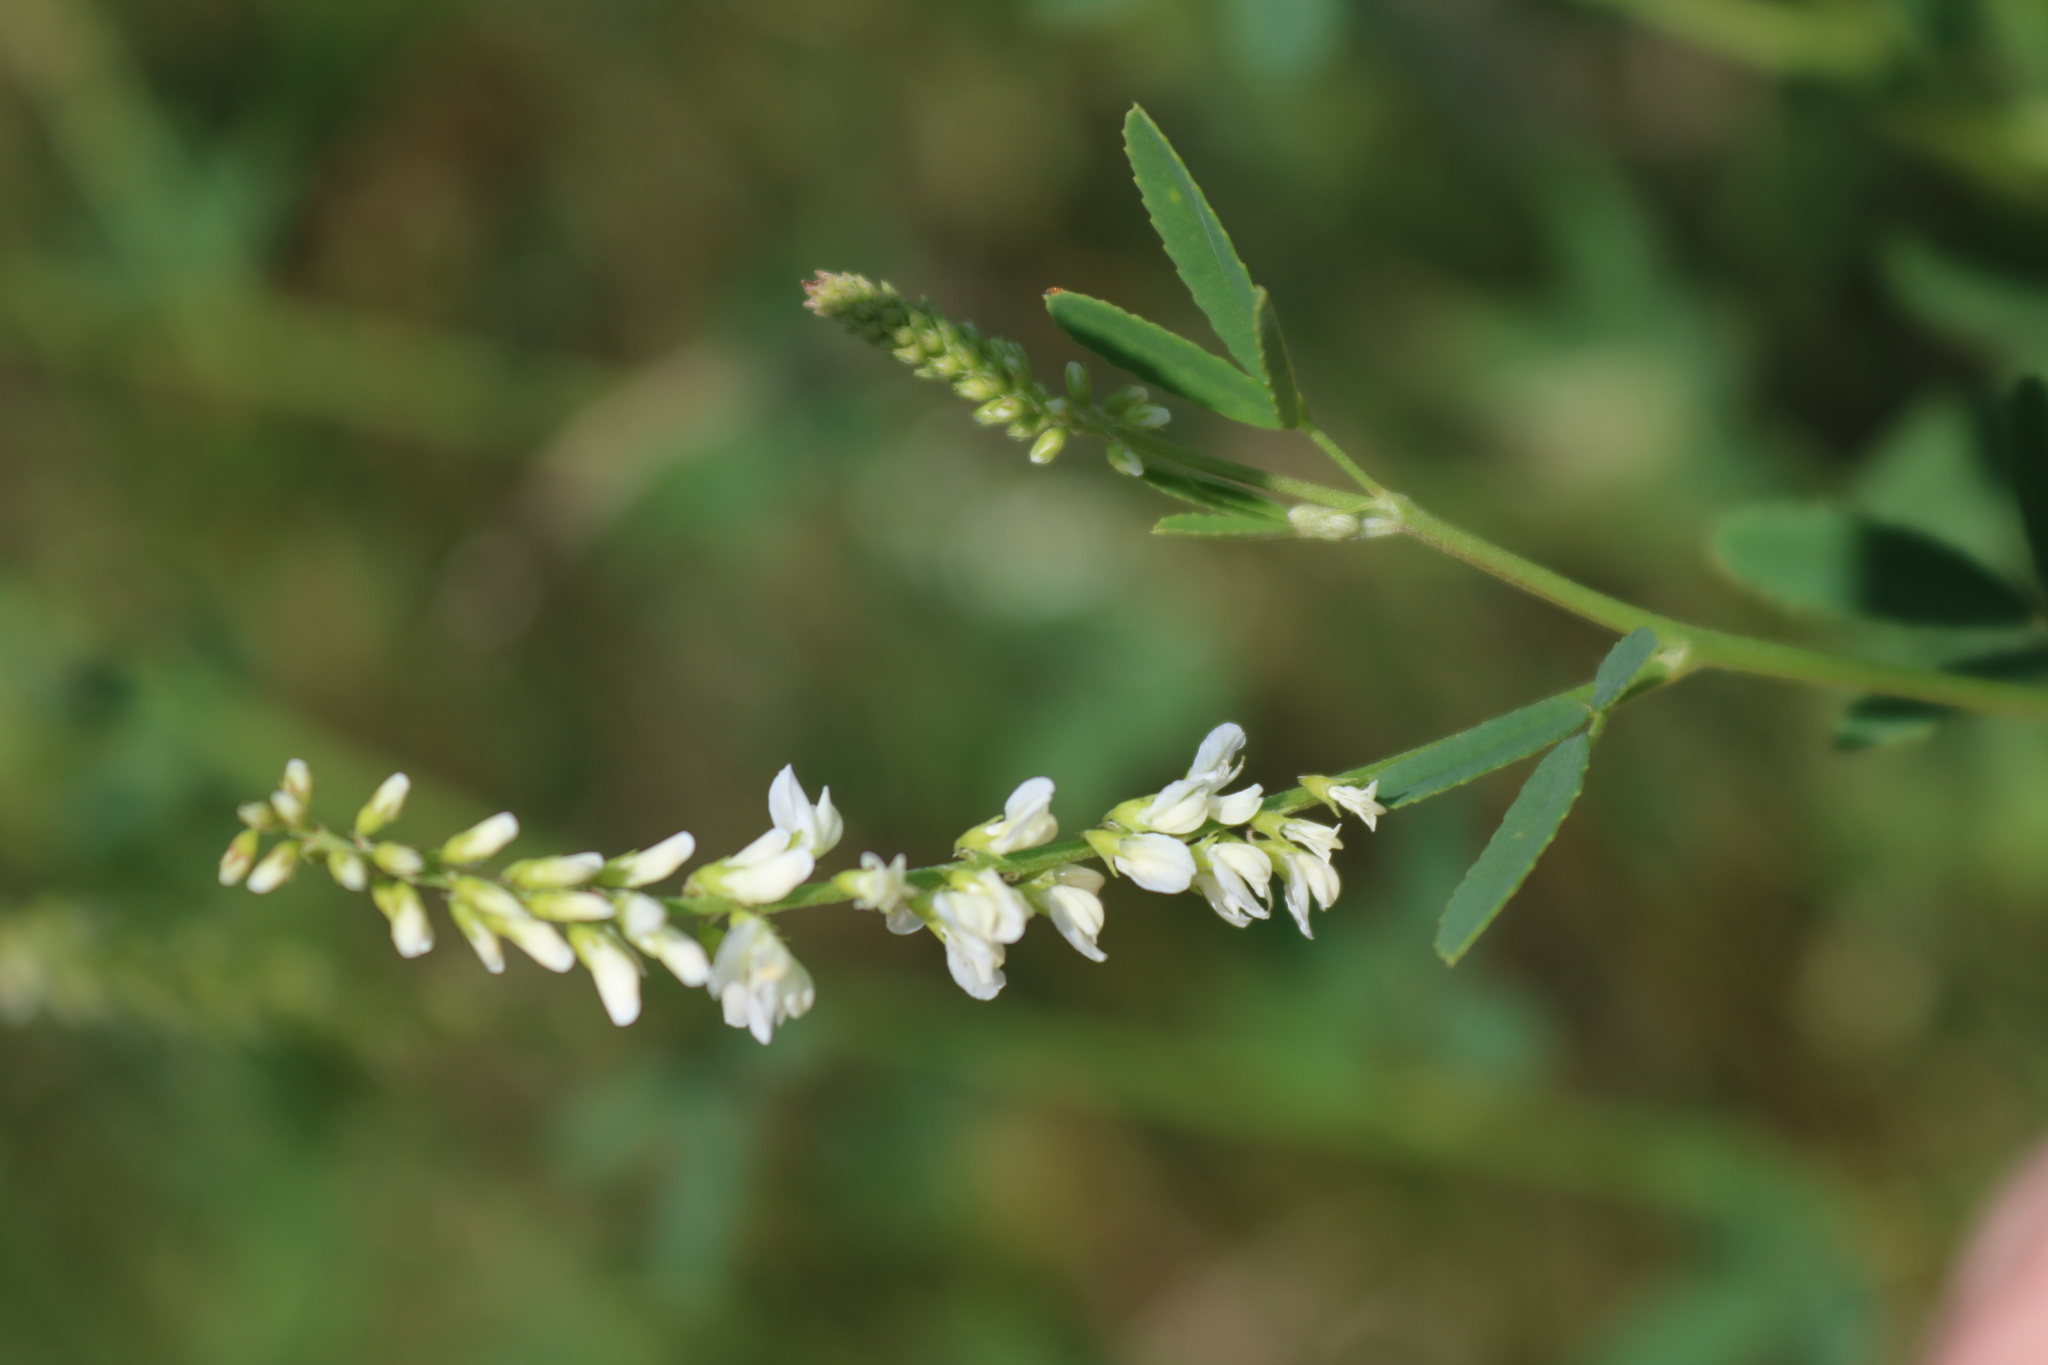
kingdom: Plantae
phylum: Tracheophyta
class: Magnoliopsida
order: Fabales
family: Fabaceae
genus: Melilotus
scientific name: Melilotus albus
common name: White melilot
